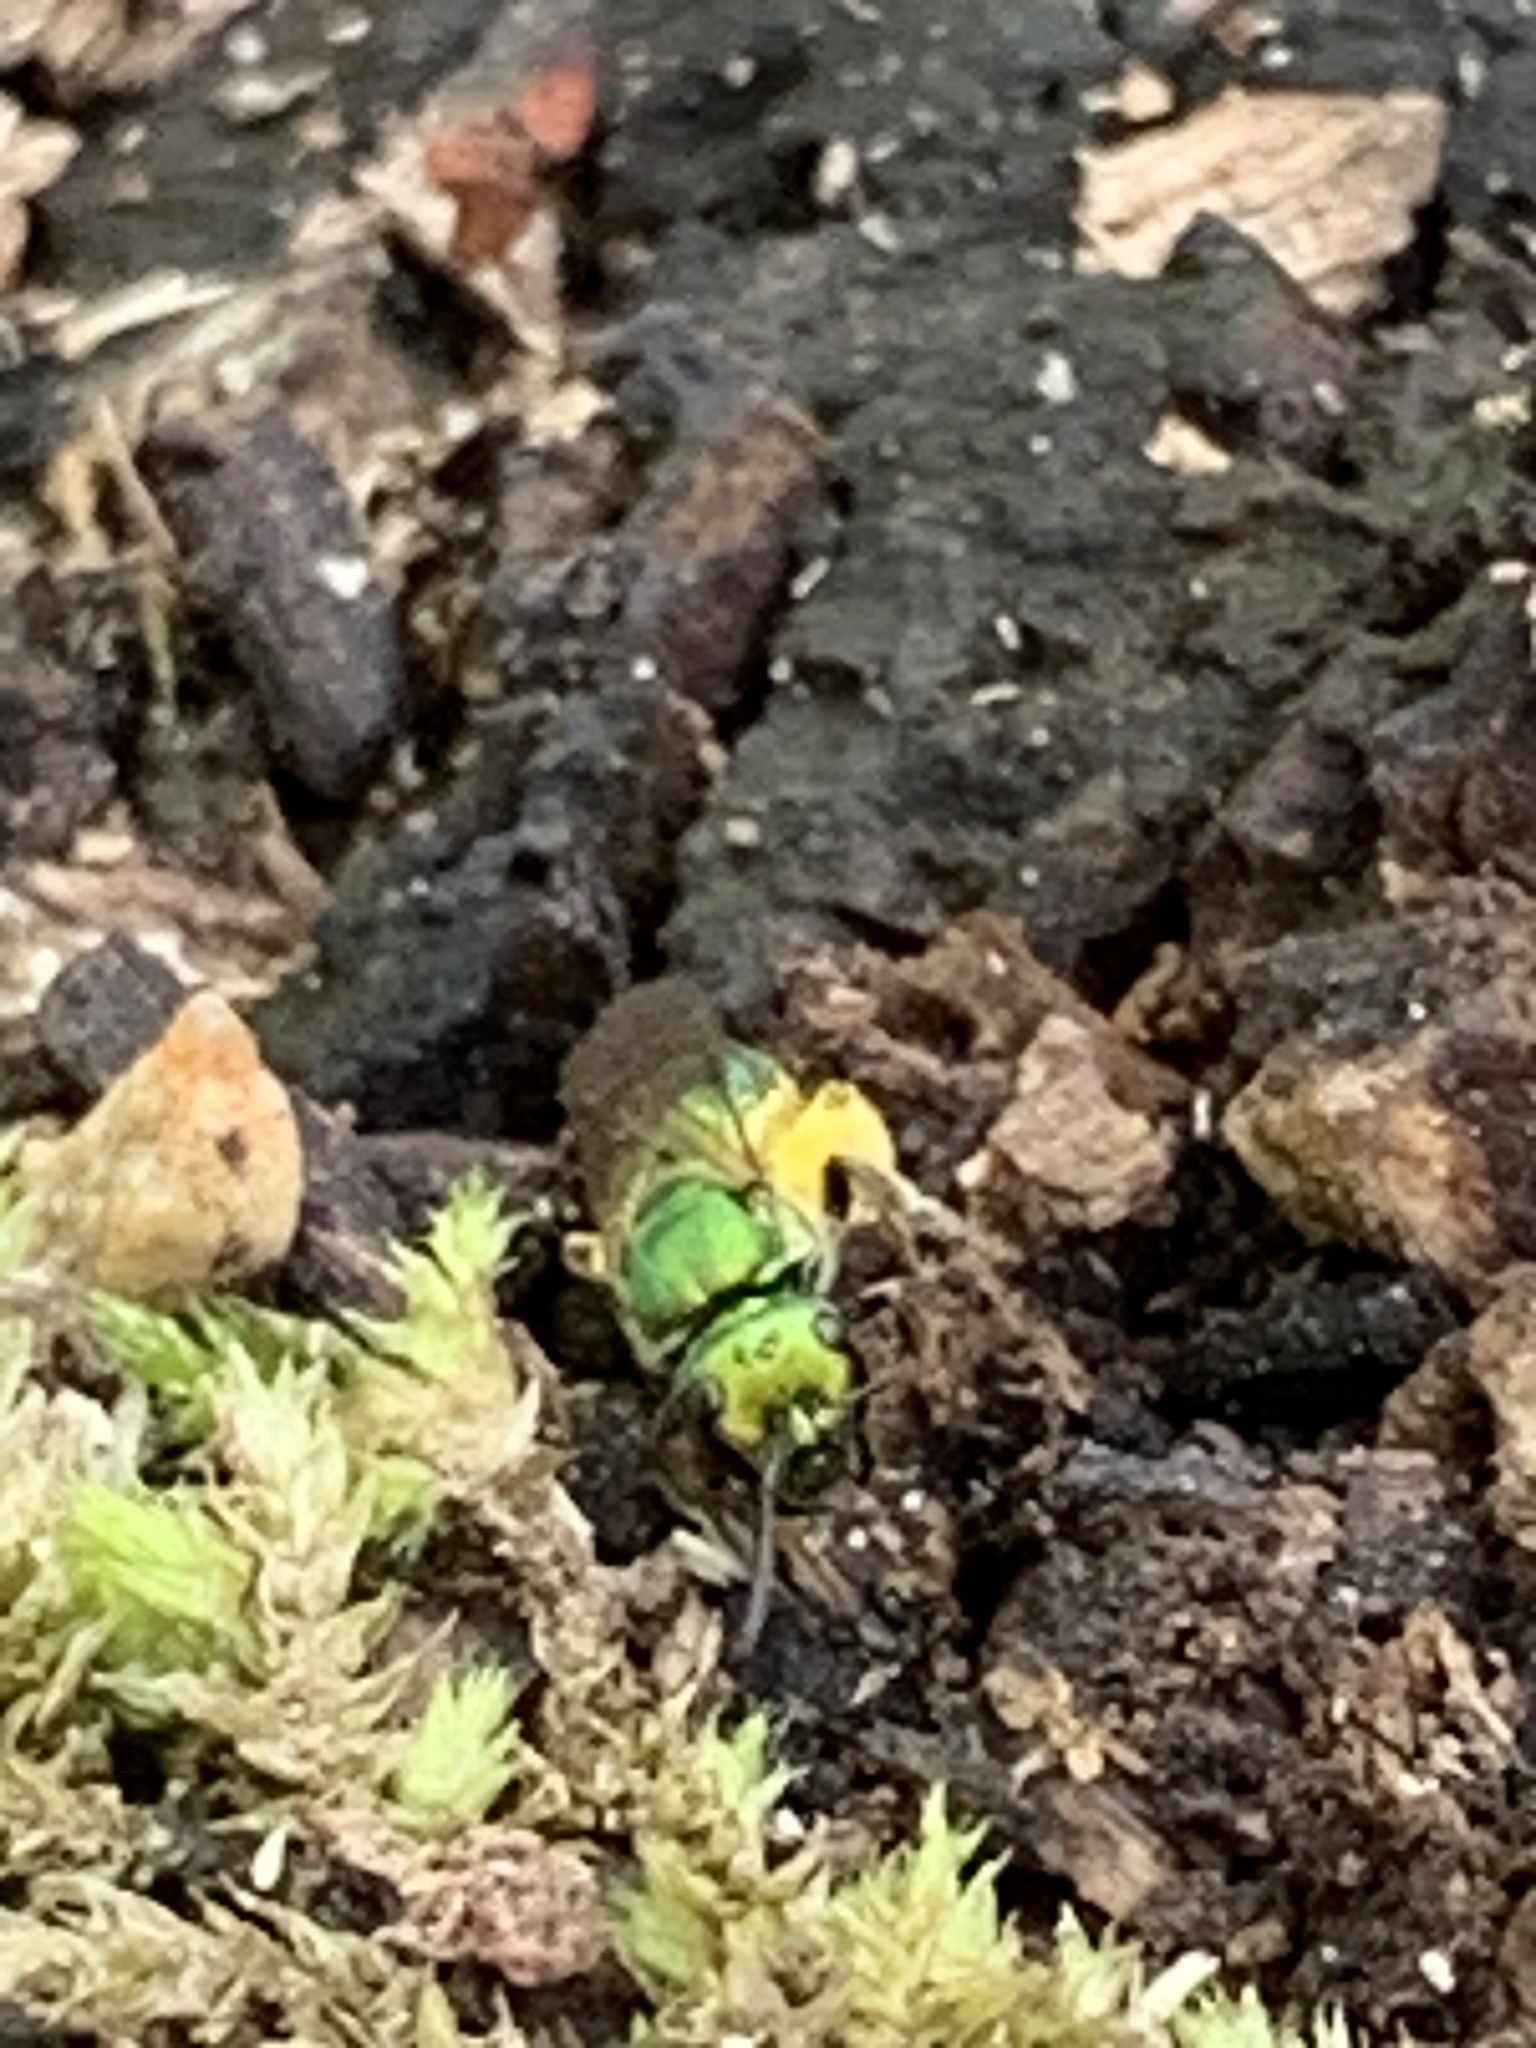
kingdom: Animalia
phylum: Arthropoda
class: Insecta
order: Hymenoptera
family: Halictidae
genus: Augochlora
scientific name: Augochlora pura
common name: Pure green sweat bee
